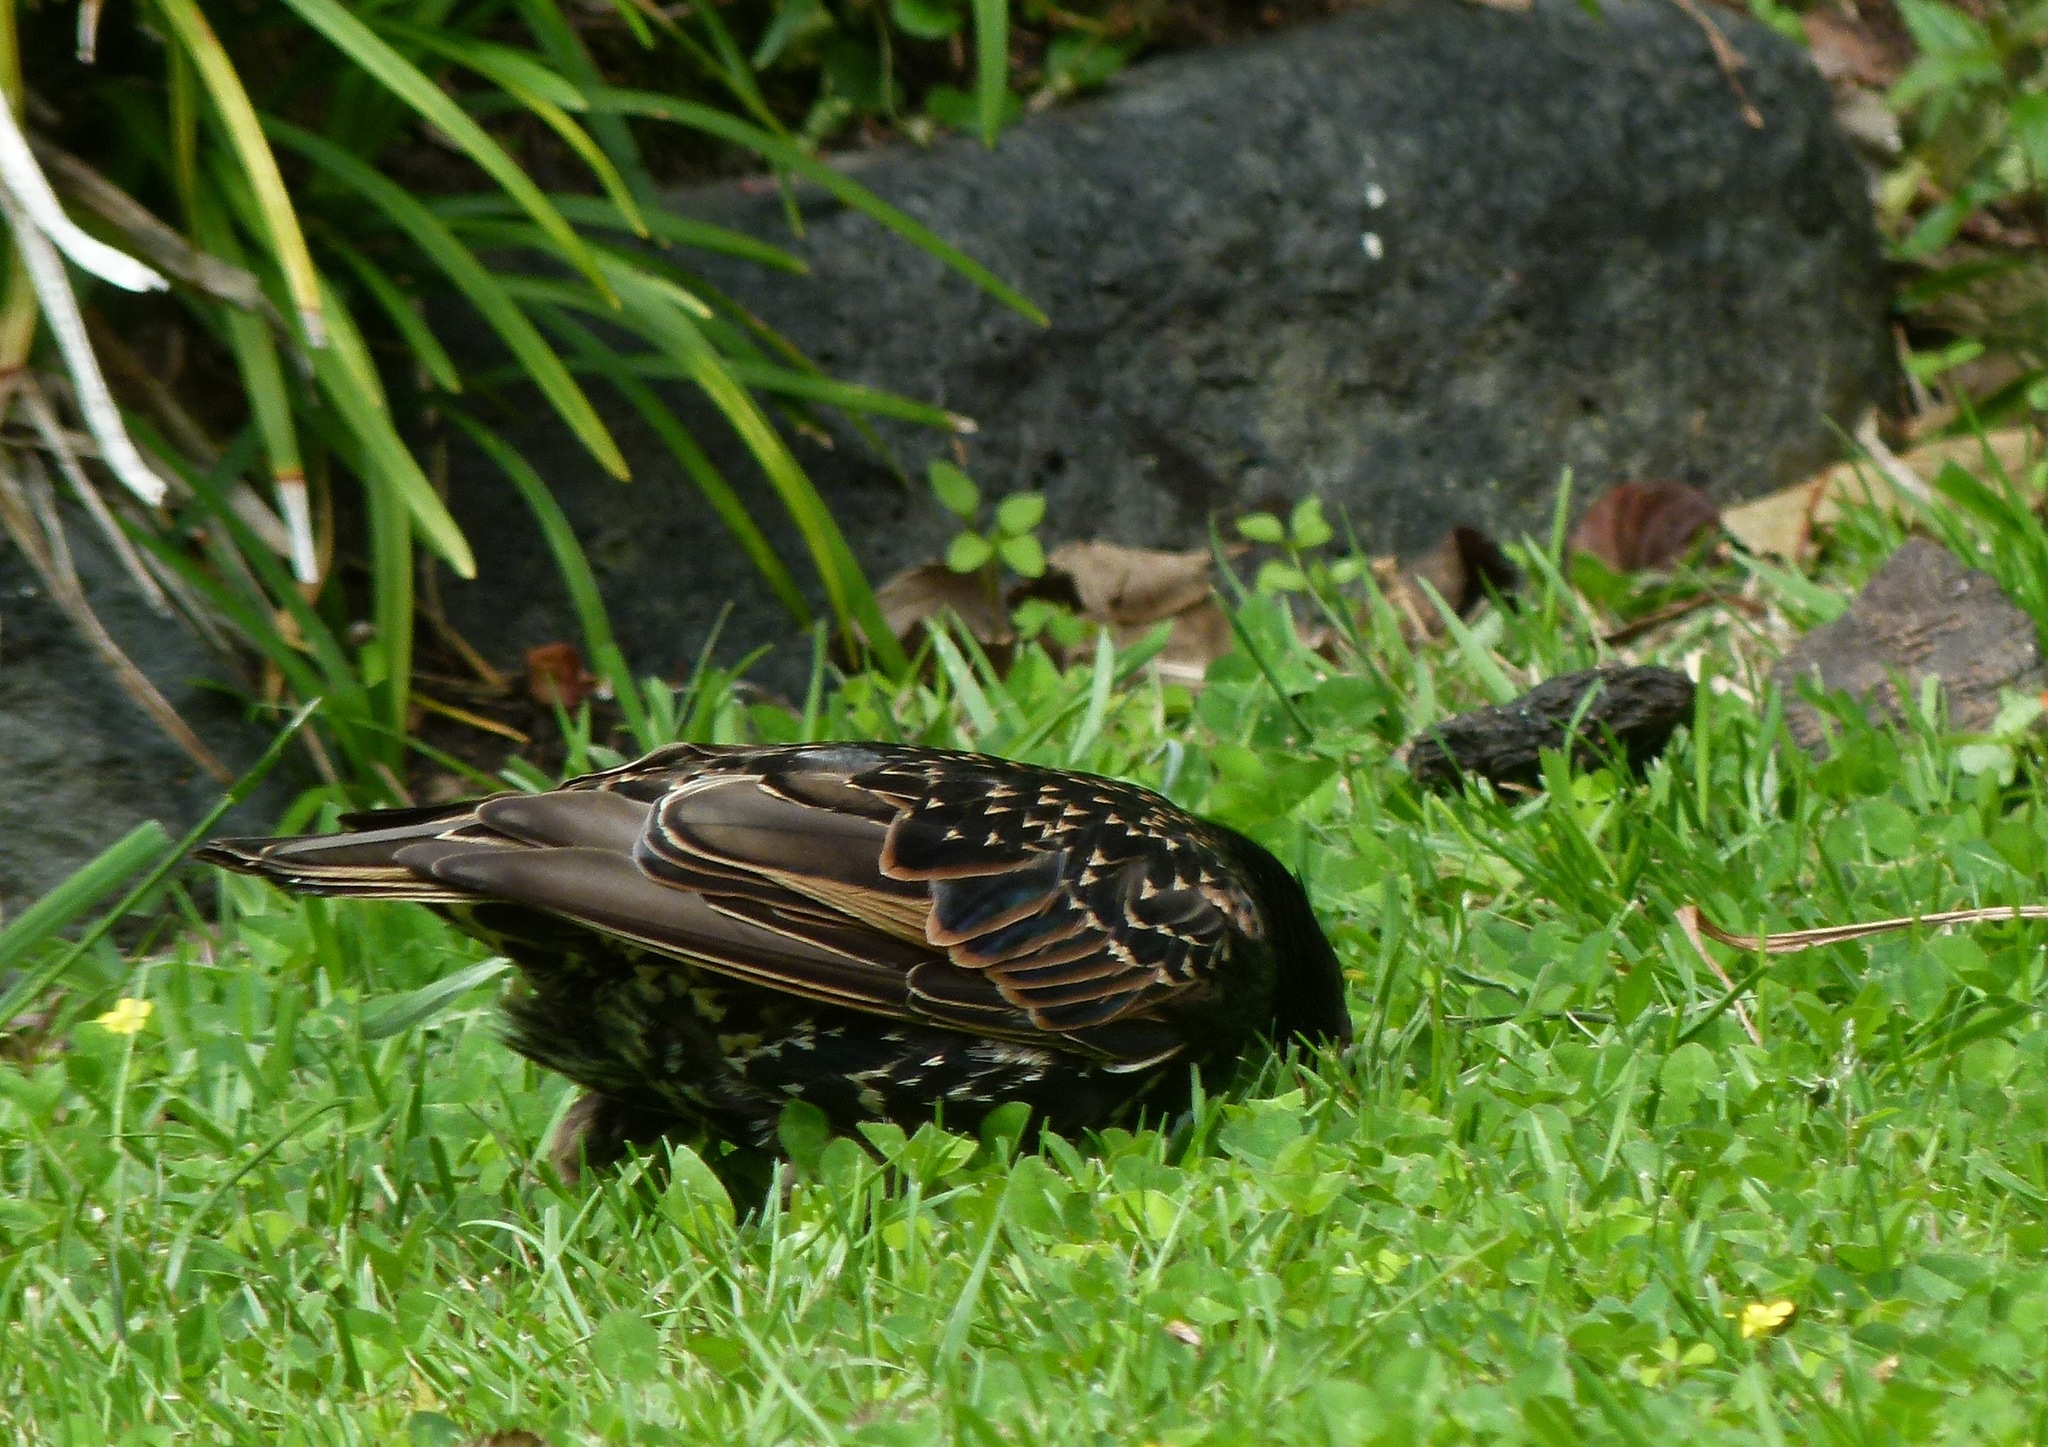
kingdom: Animalia
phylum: Chordata
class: Aves
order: Passeriformes
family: Sturnidae
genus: Sturnus
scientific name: Sturnus vulgaris
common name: Common starling
